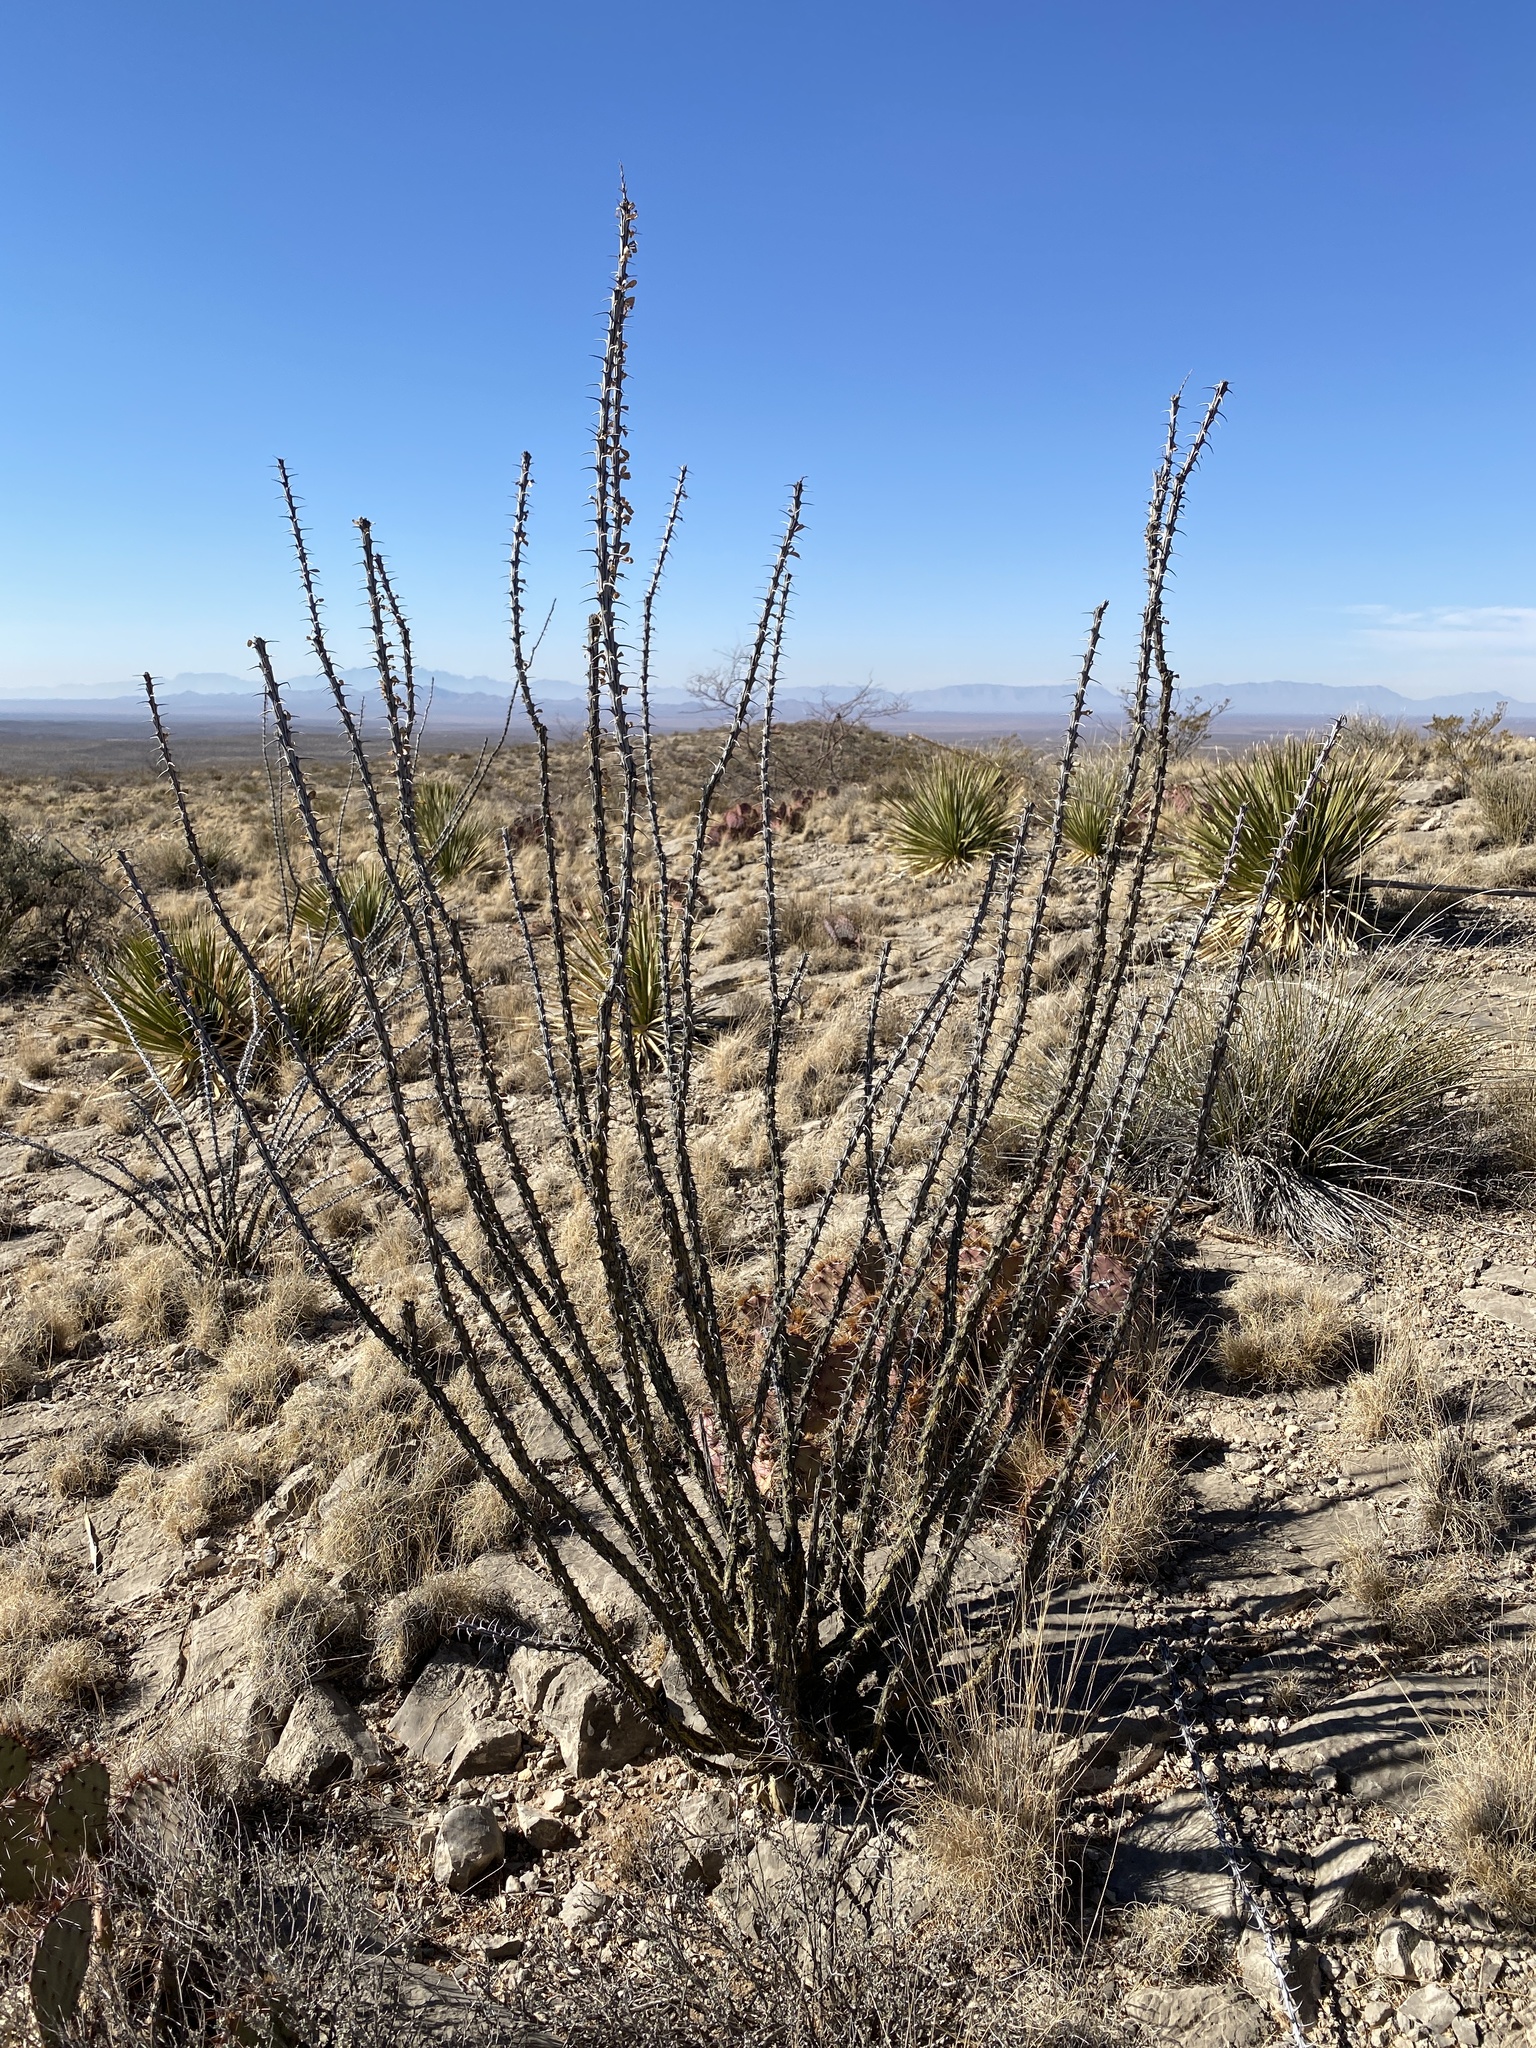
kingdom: Plantae
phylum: Tracheophyta
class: Magnoliopsida
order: Ericales
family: Fouquieriaceae
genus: Fouquieria
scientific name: Fouquieria splendens
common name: Vine-cactus
